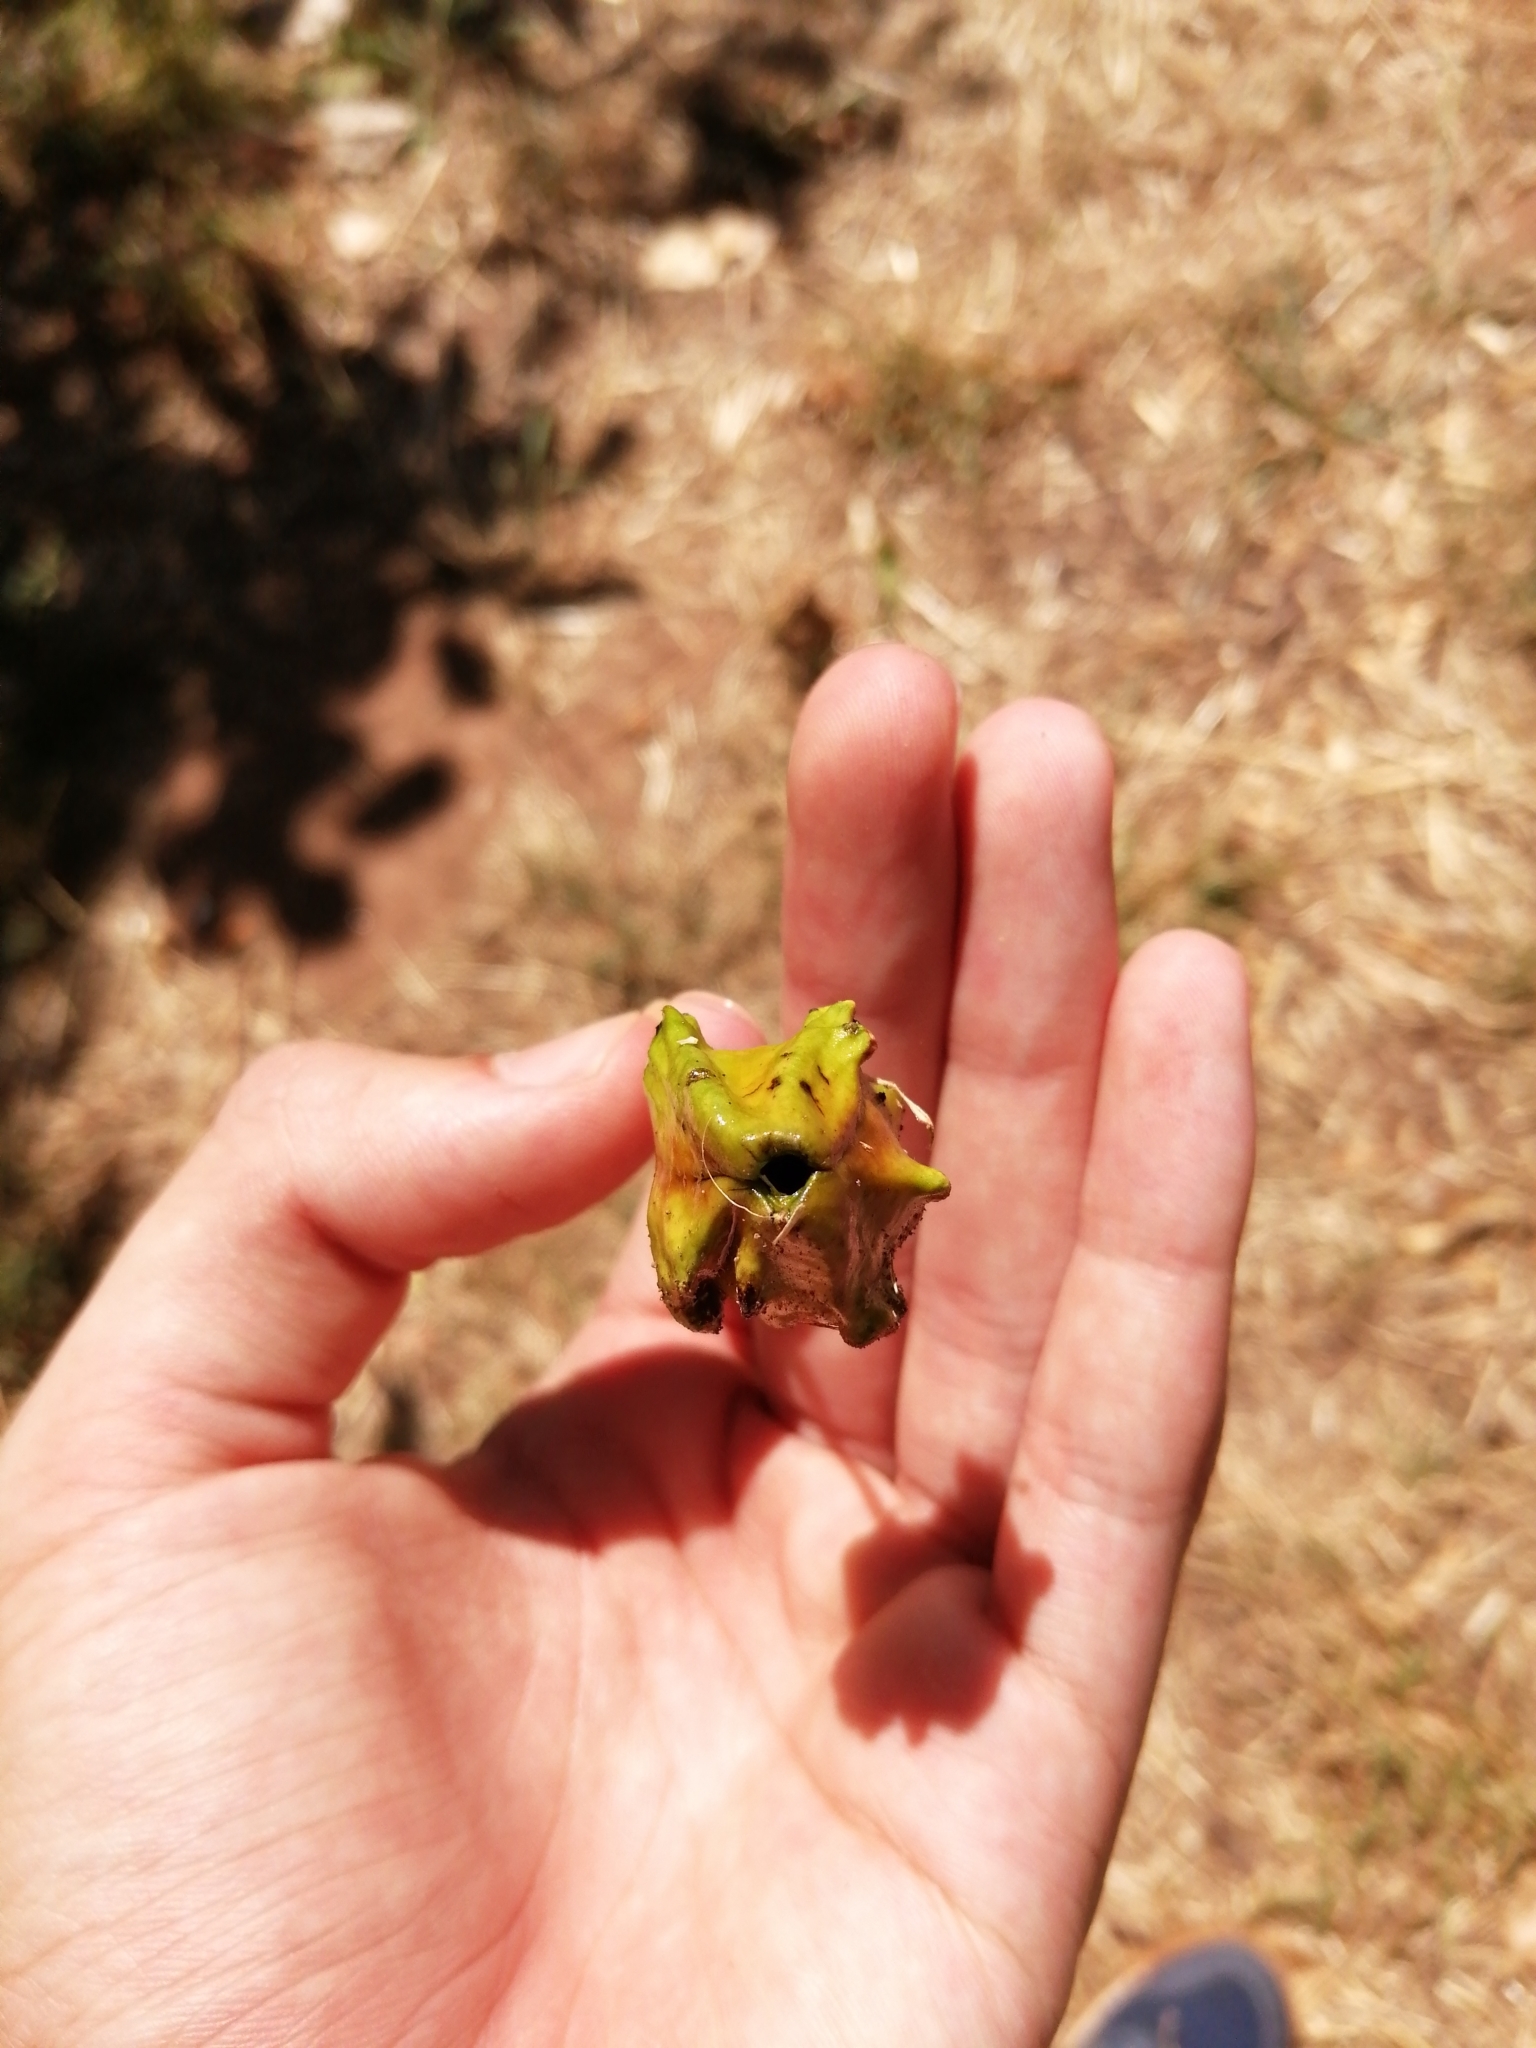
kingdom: Animalia
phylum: Arthropoda
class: Insecta
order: Hymenoptera
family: Cynipidae
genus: Andricus
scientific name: Andricus quercuscalicis
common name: Knopper gall
